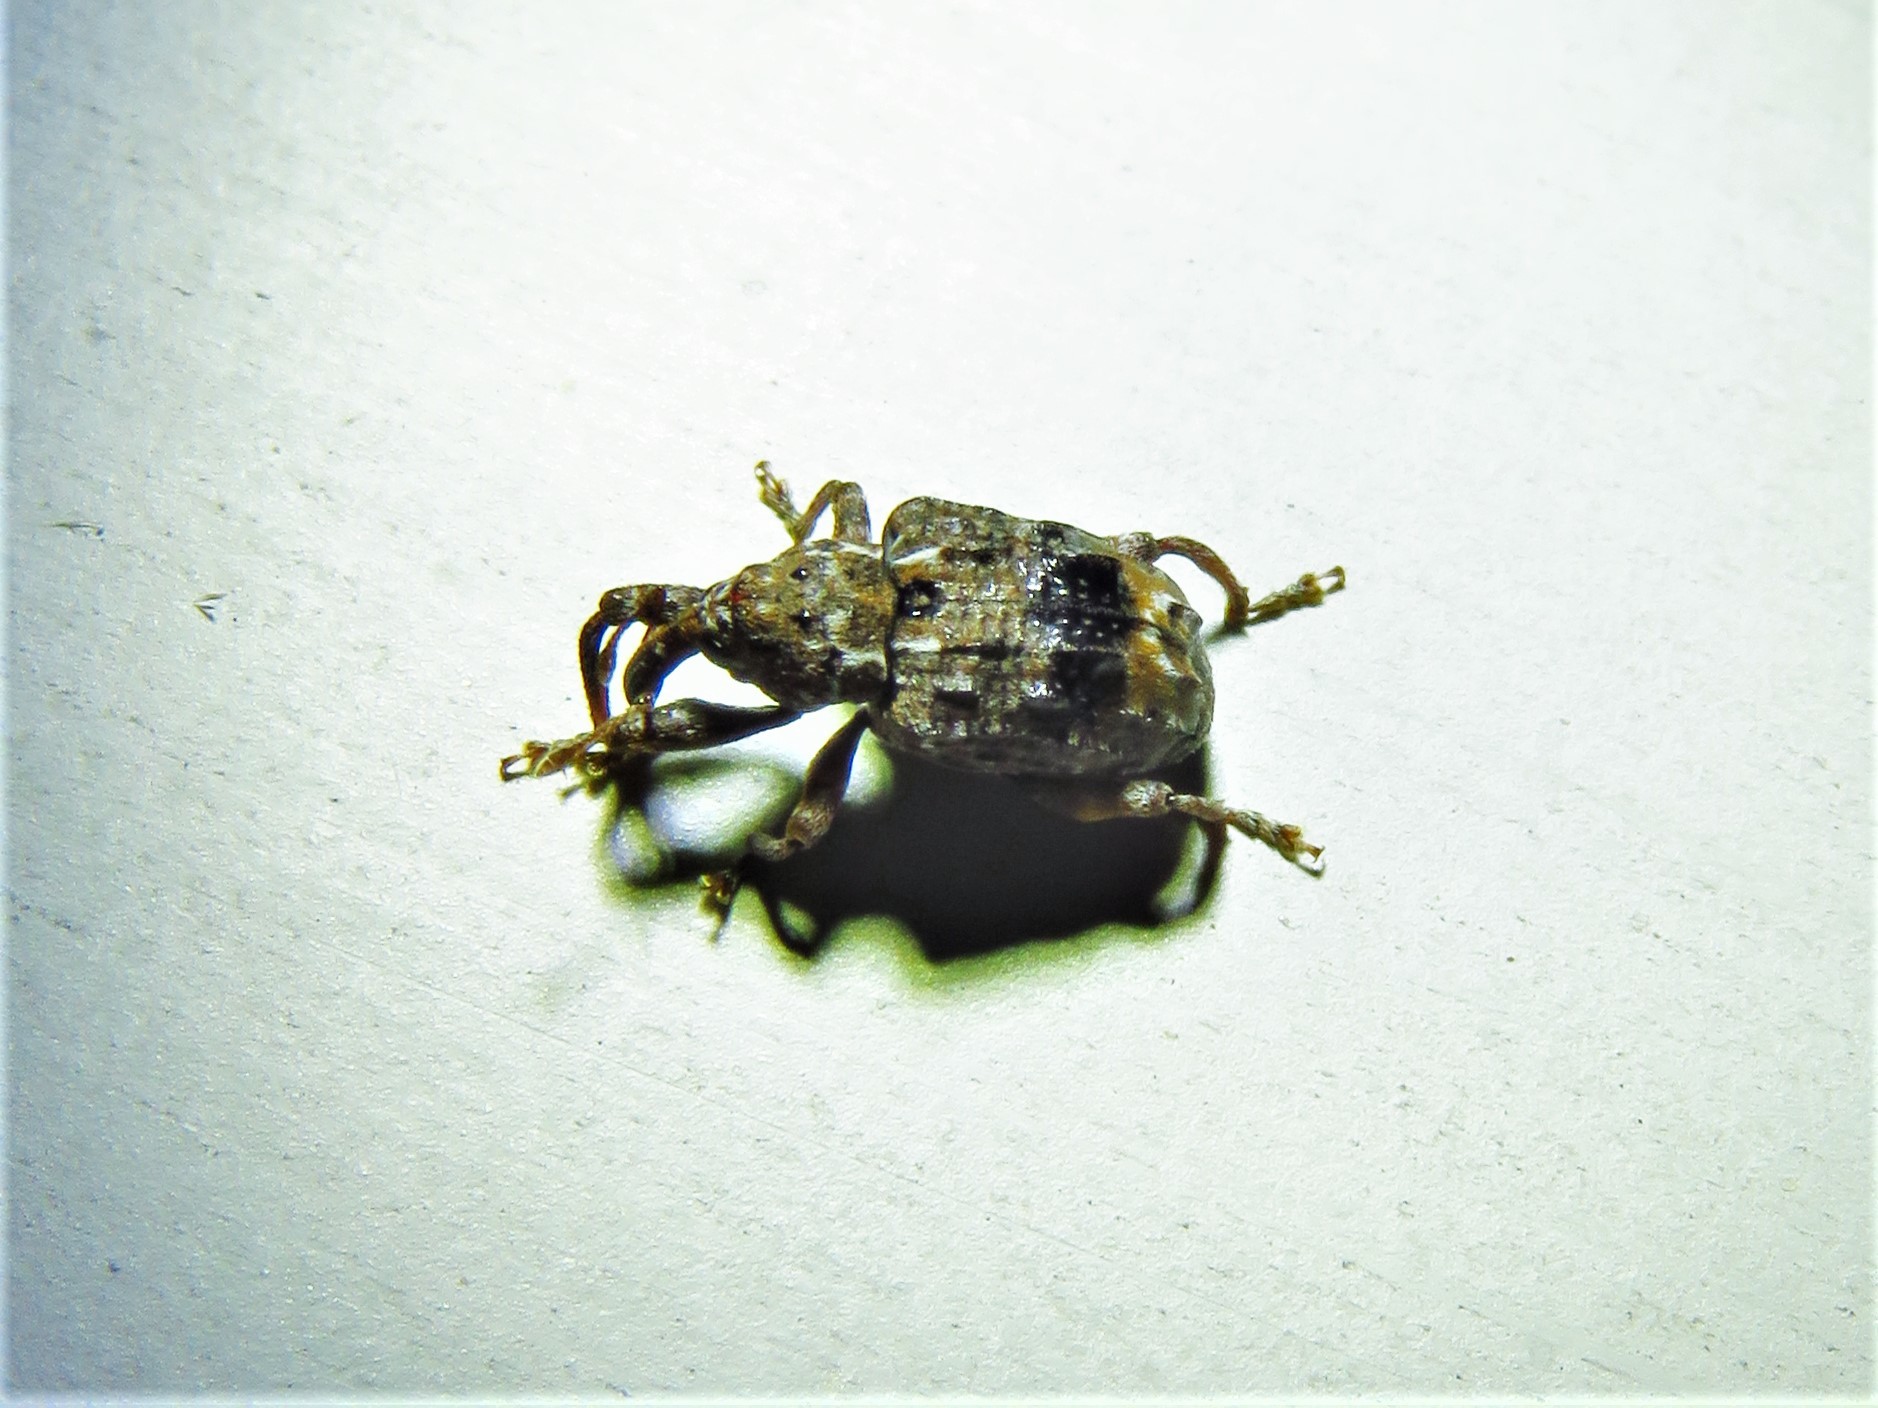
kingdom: Animalia
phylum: Arthropoda
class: Insecta
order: Coleoptera
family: Curculionidae
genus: Conotrachelus
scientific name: Conotrachelus nenuphar
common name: Plum curculio
